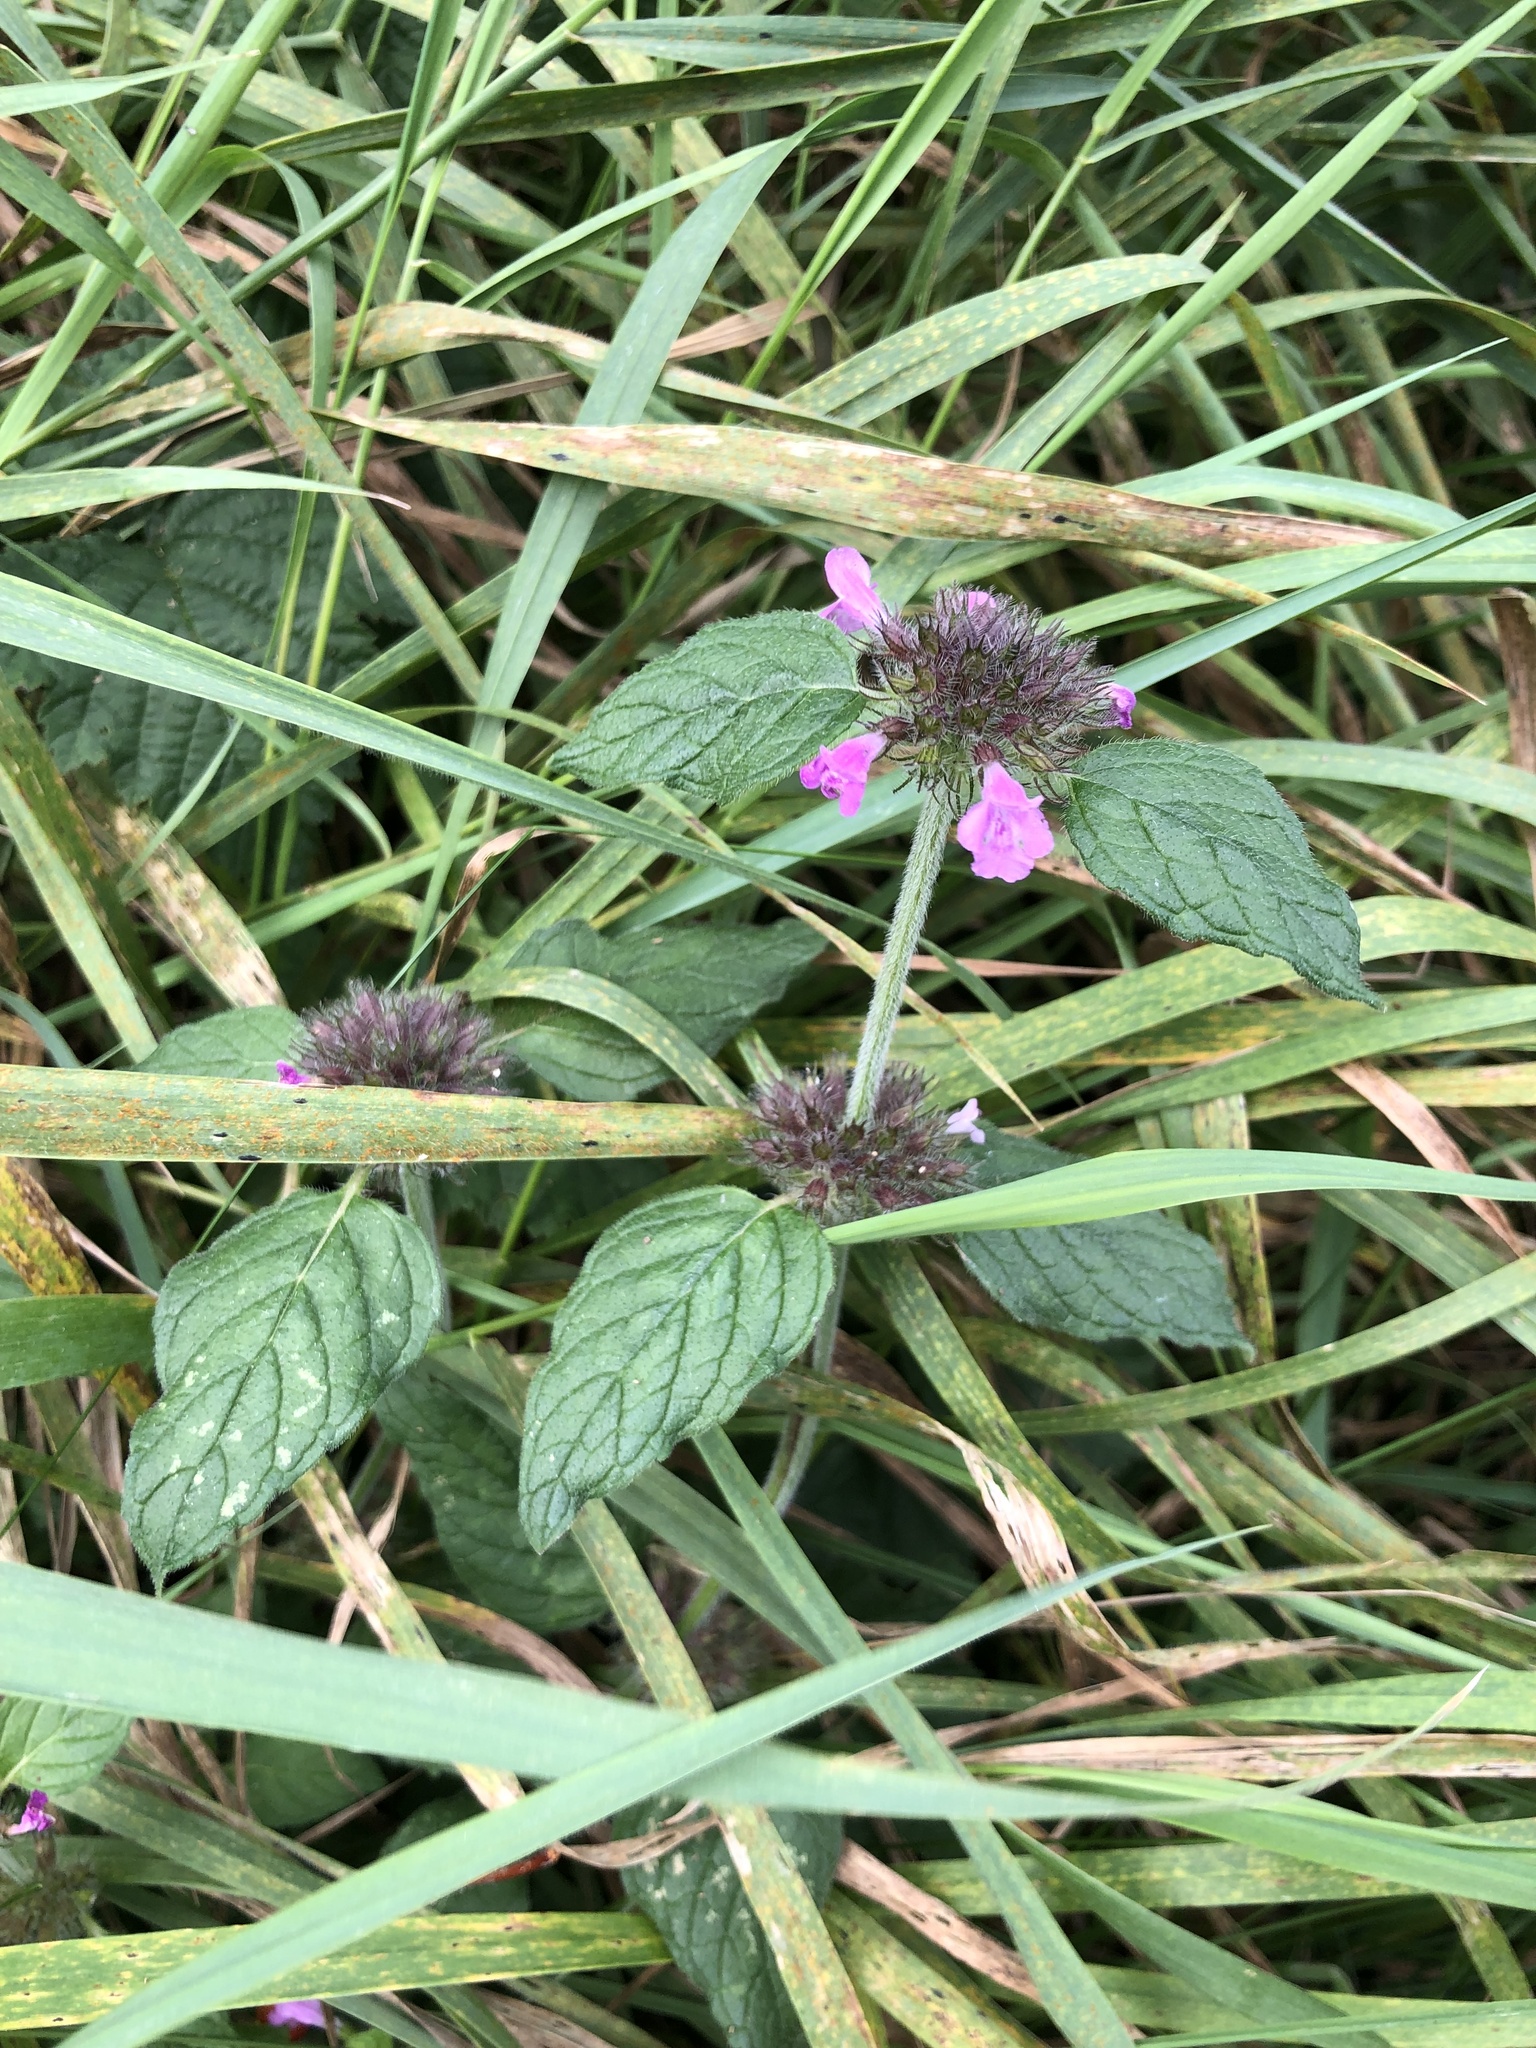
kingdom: Plantae
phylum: Tracheophyta
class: Magnoliopsida
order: Lamiales
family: Lamiaceae
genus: Clinopodium
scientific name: Clinopodium vulgare
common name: Wild basil
